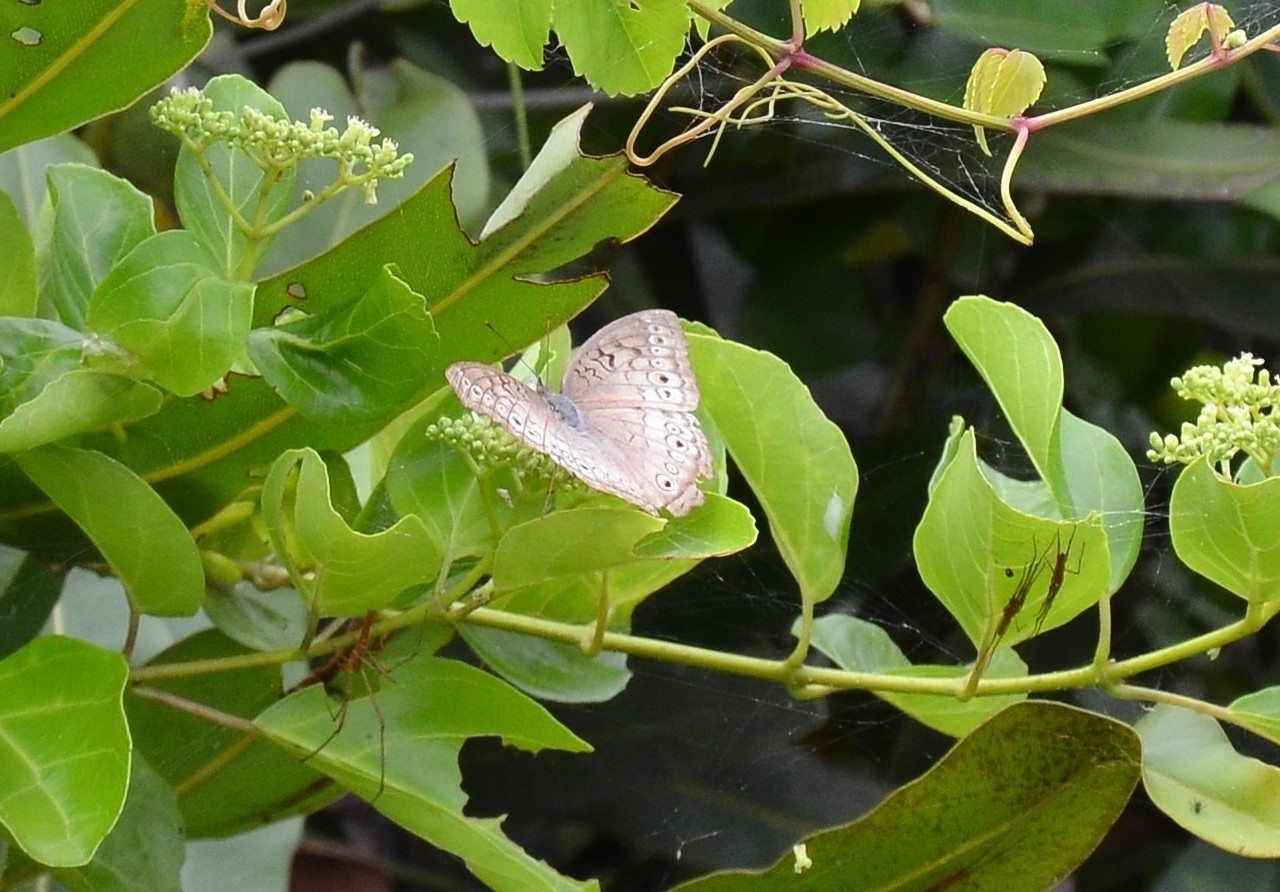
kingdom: Animalia
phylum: Arthropoda
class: Insecta
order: Lepidoptera
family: Nymphalidae
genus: Junonia
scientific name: Junonia atlites
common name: Grey pansy
